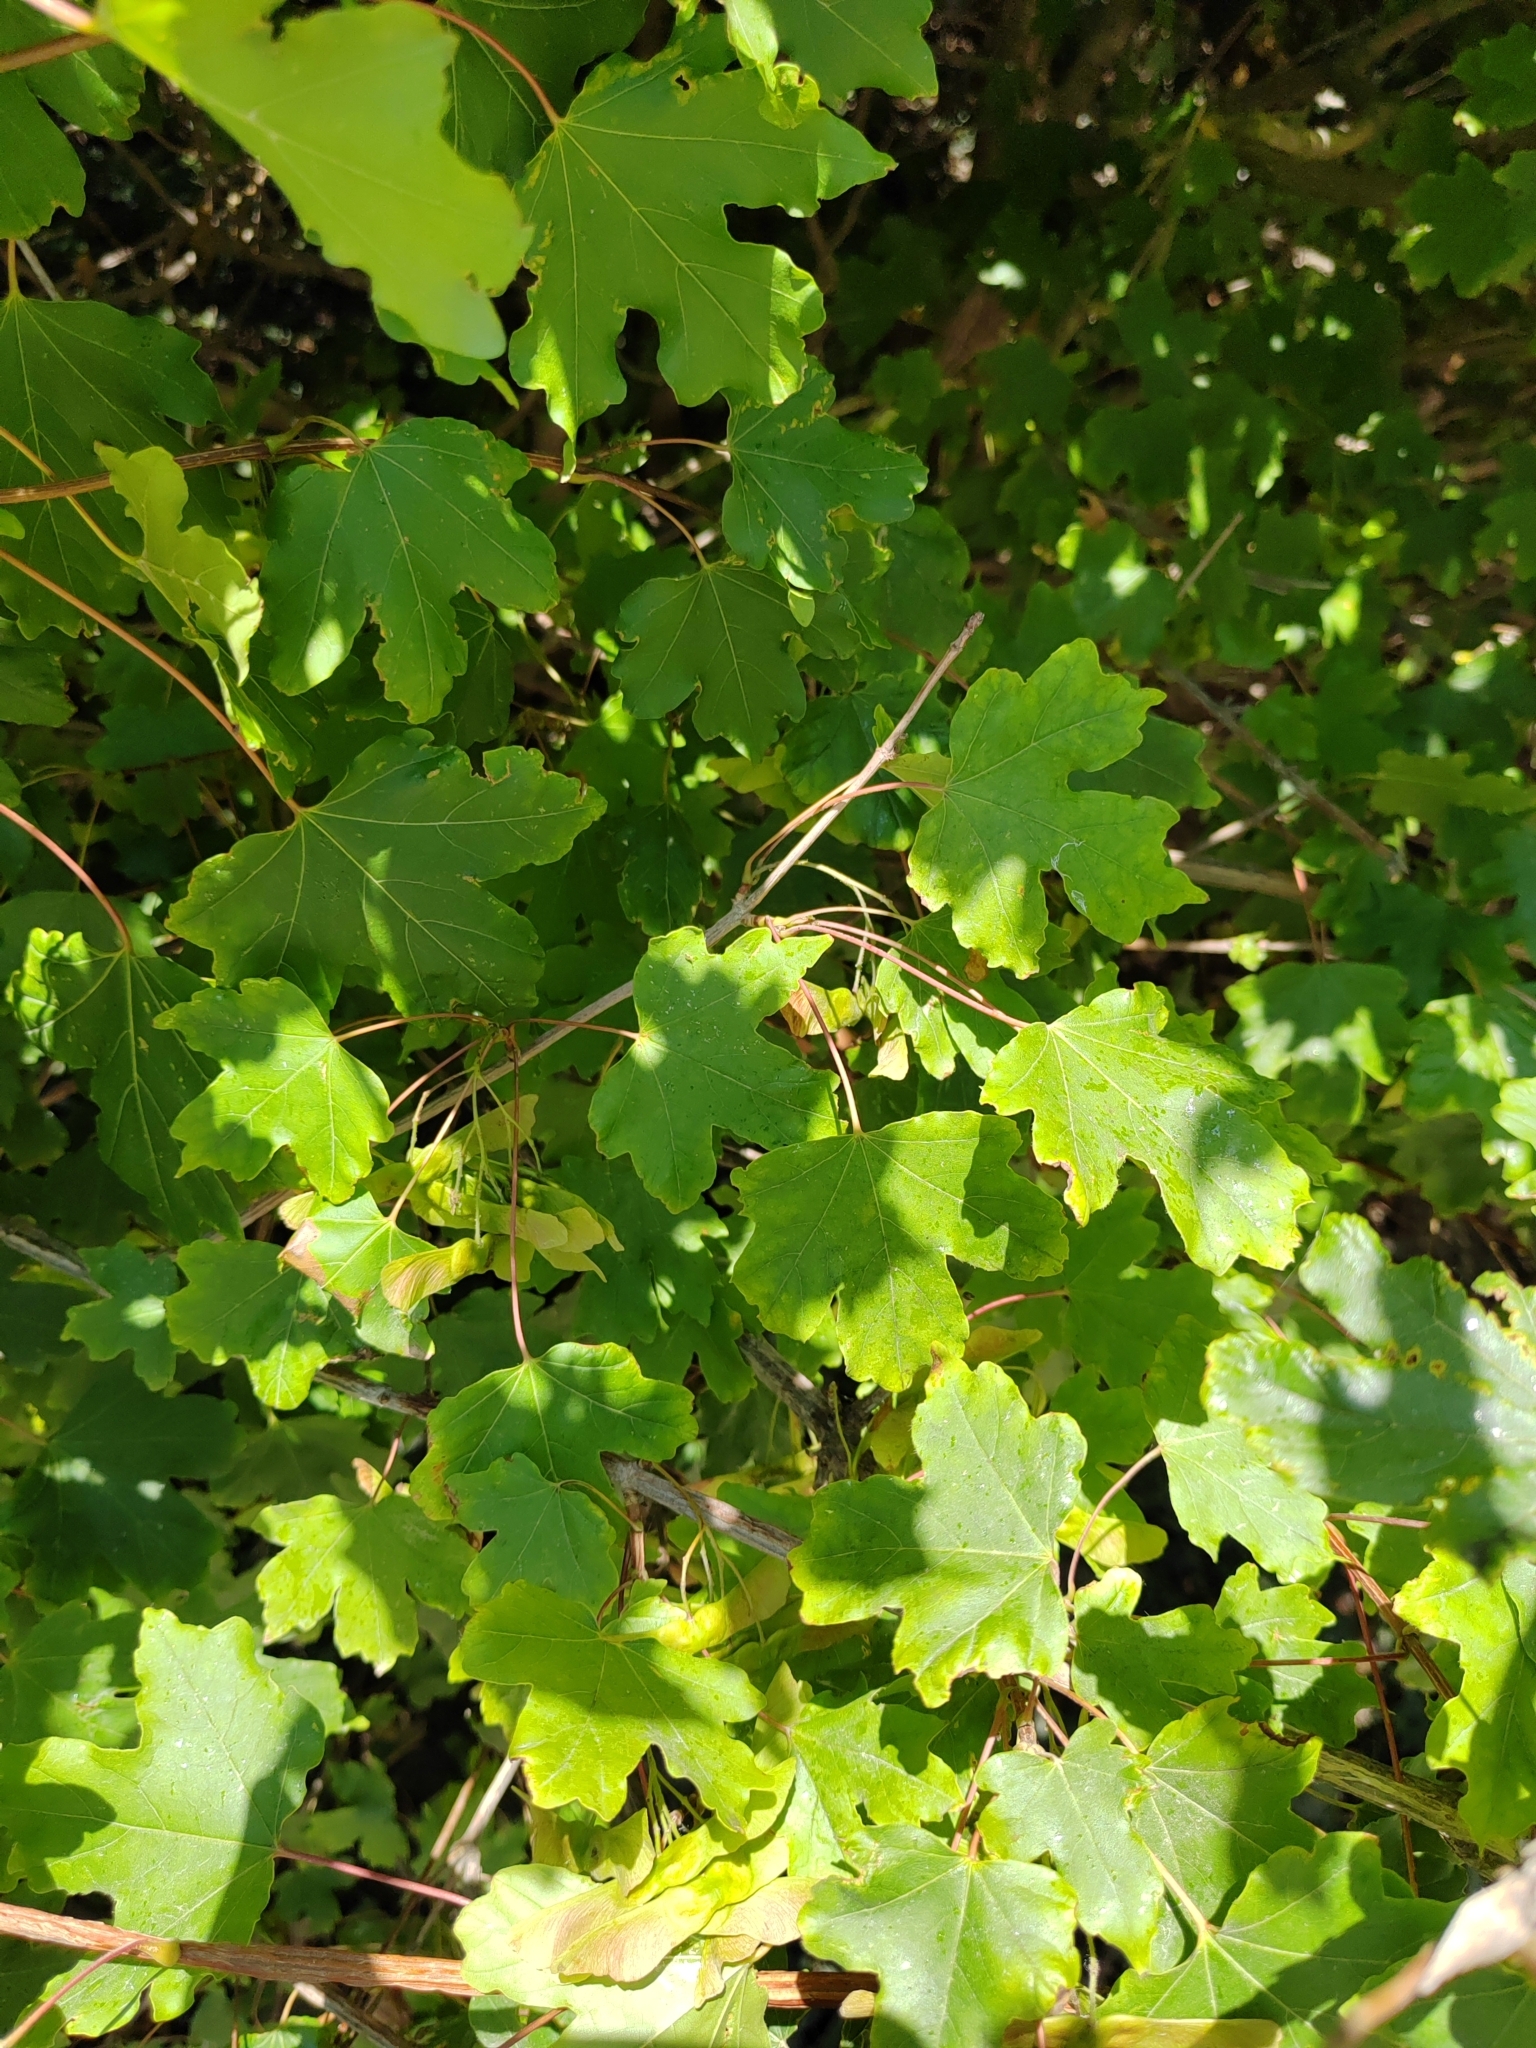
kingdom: Plantae
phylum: Tracheophyta
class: Magnoliopsida
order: Sapindales
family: Sapindaceae
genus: Acer
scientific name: Acer campestre
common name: Field maple
